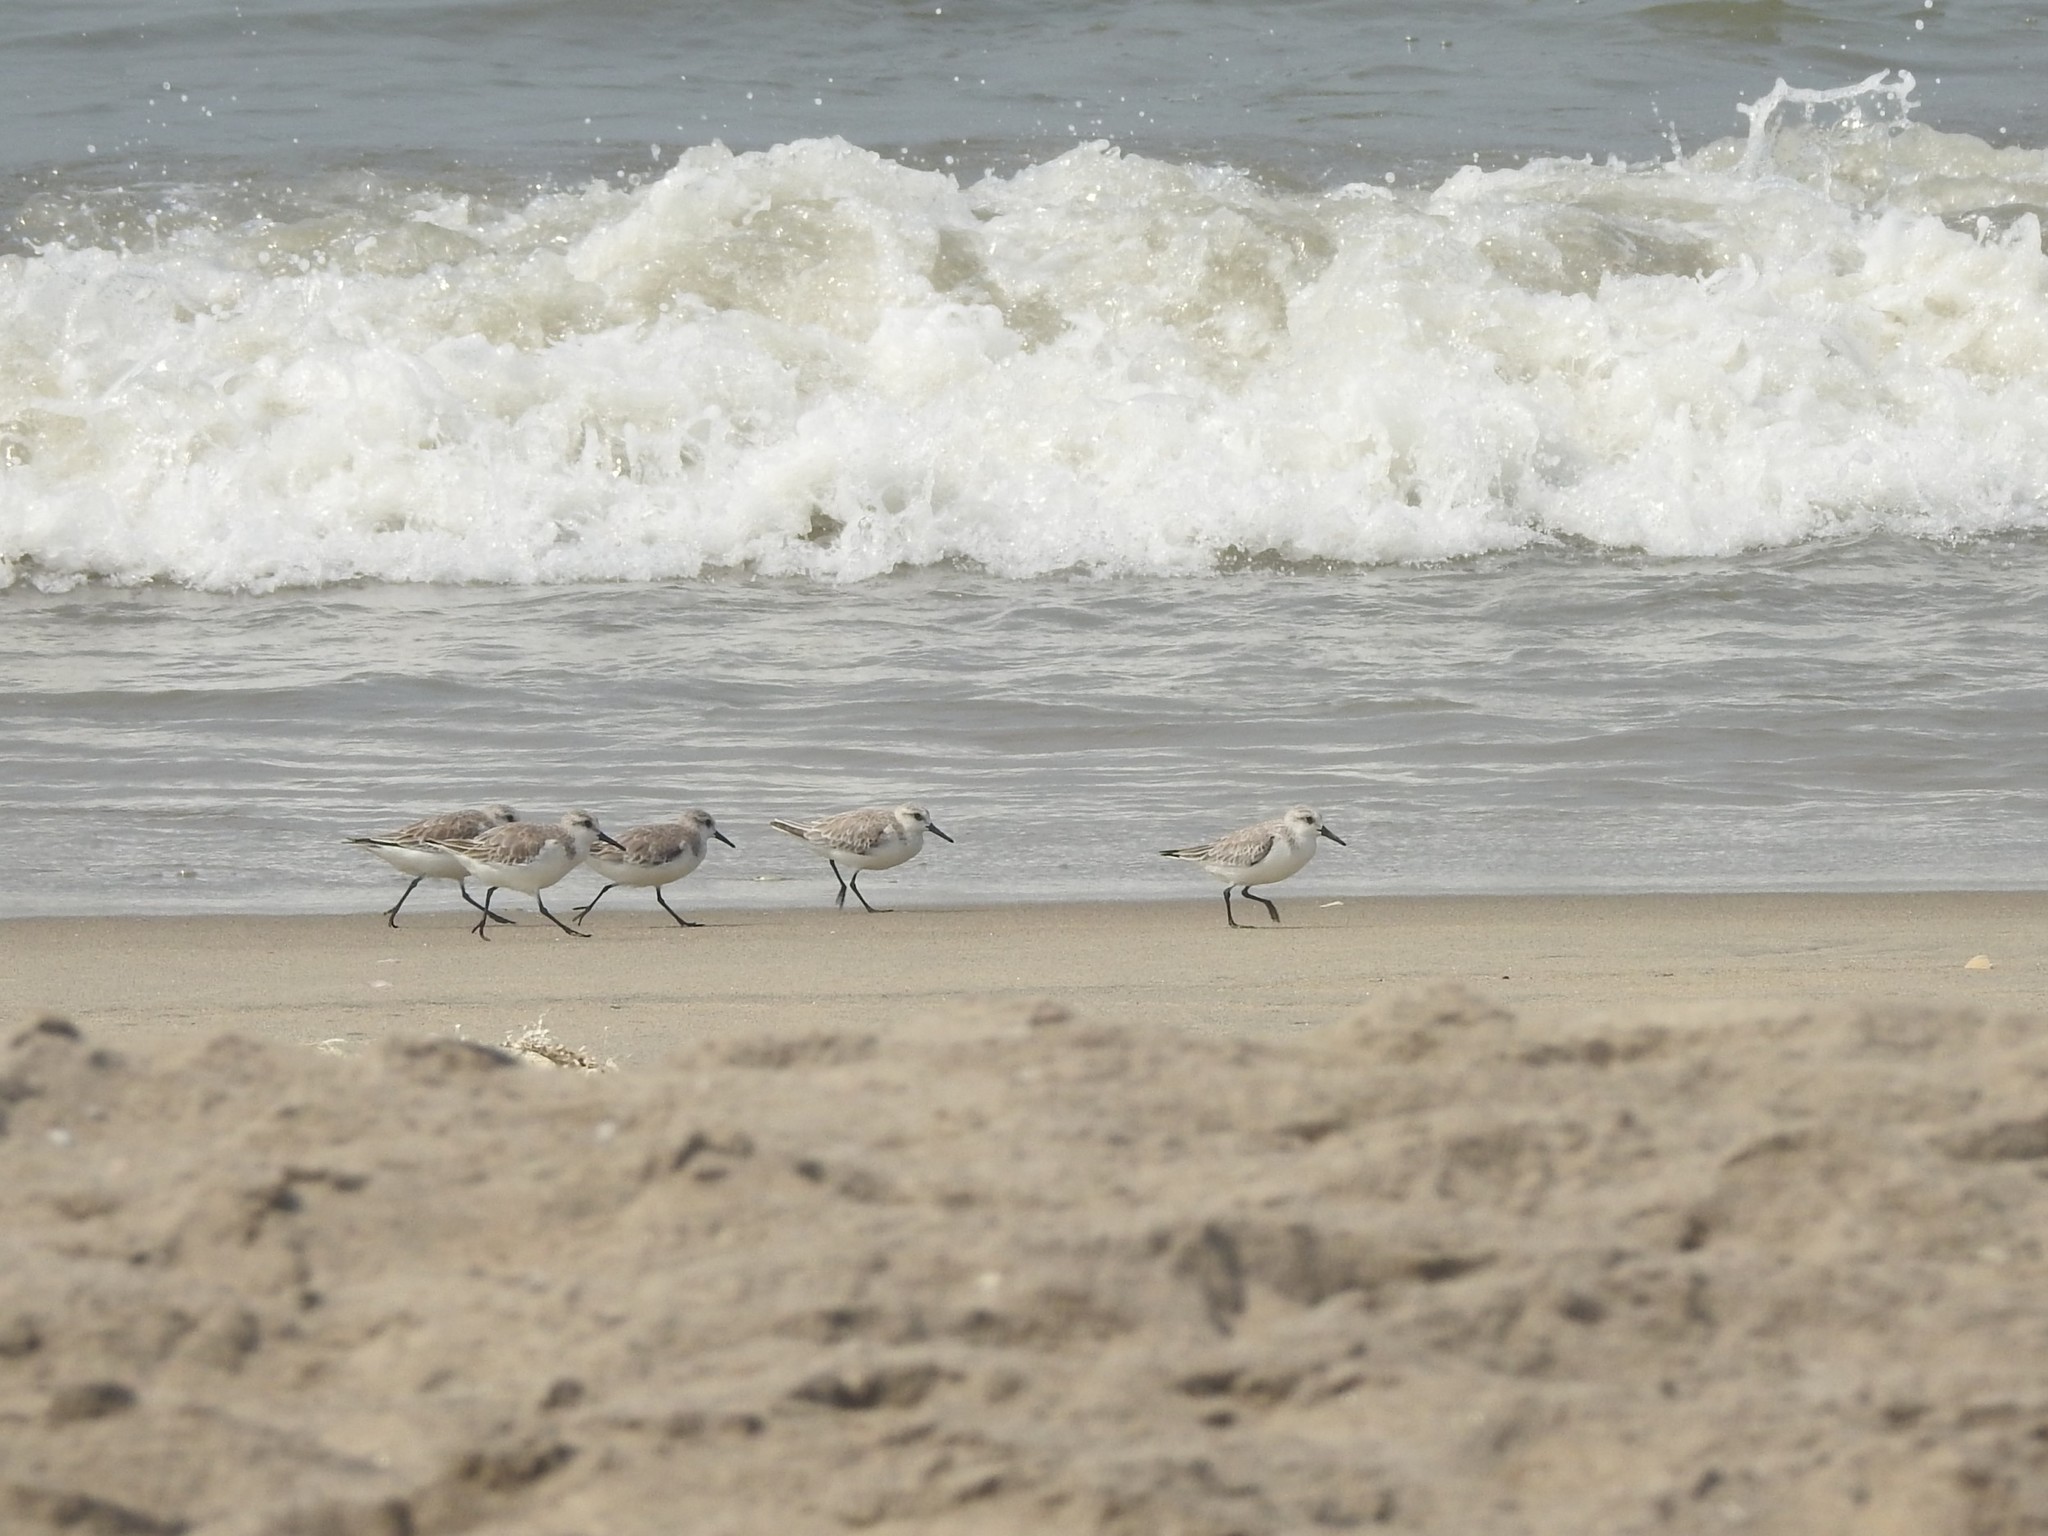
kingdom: Animalia
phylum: Chordata
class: Aves
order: Charadriiformes
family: Scolopacidae
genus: Calidris
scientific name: Calidris alba
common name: Sanderling
